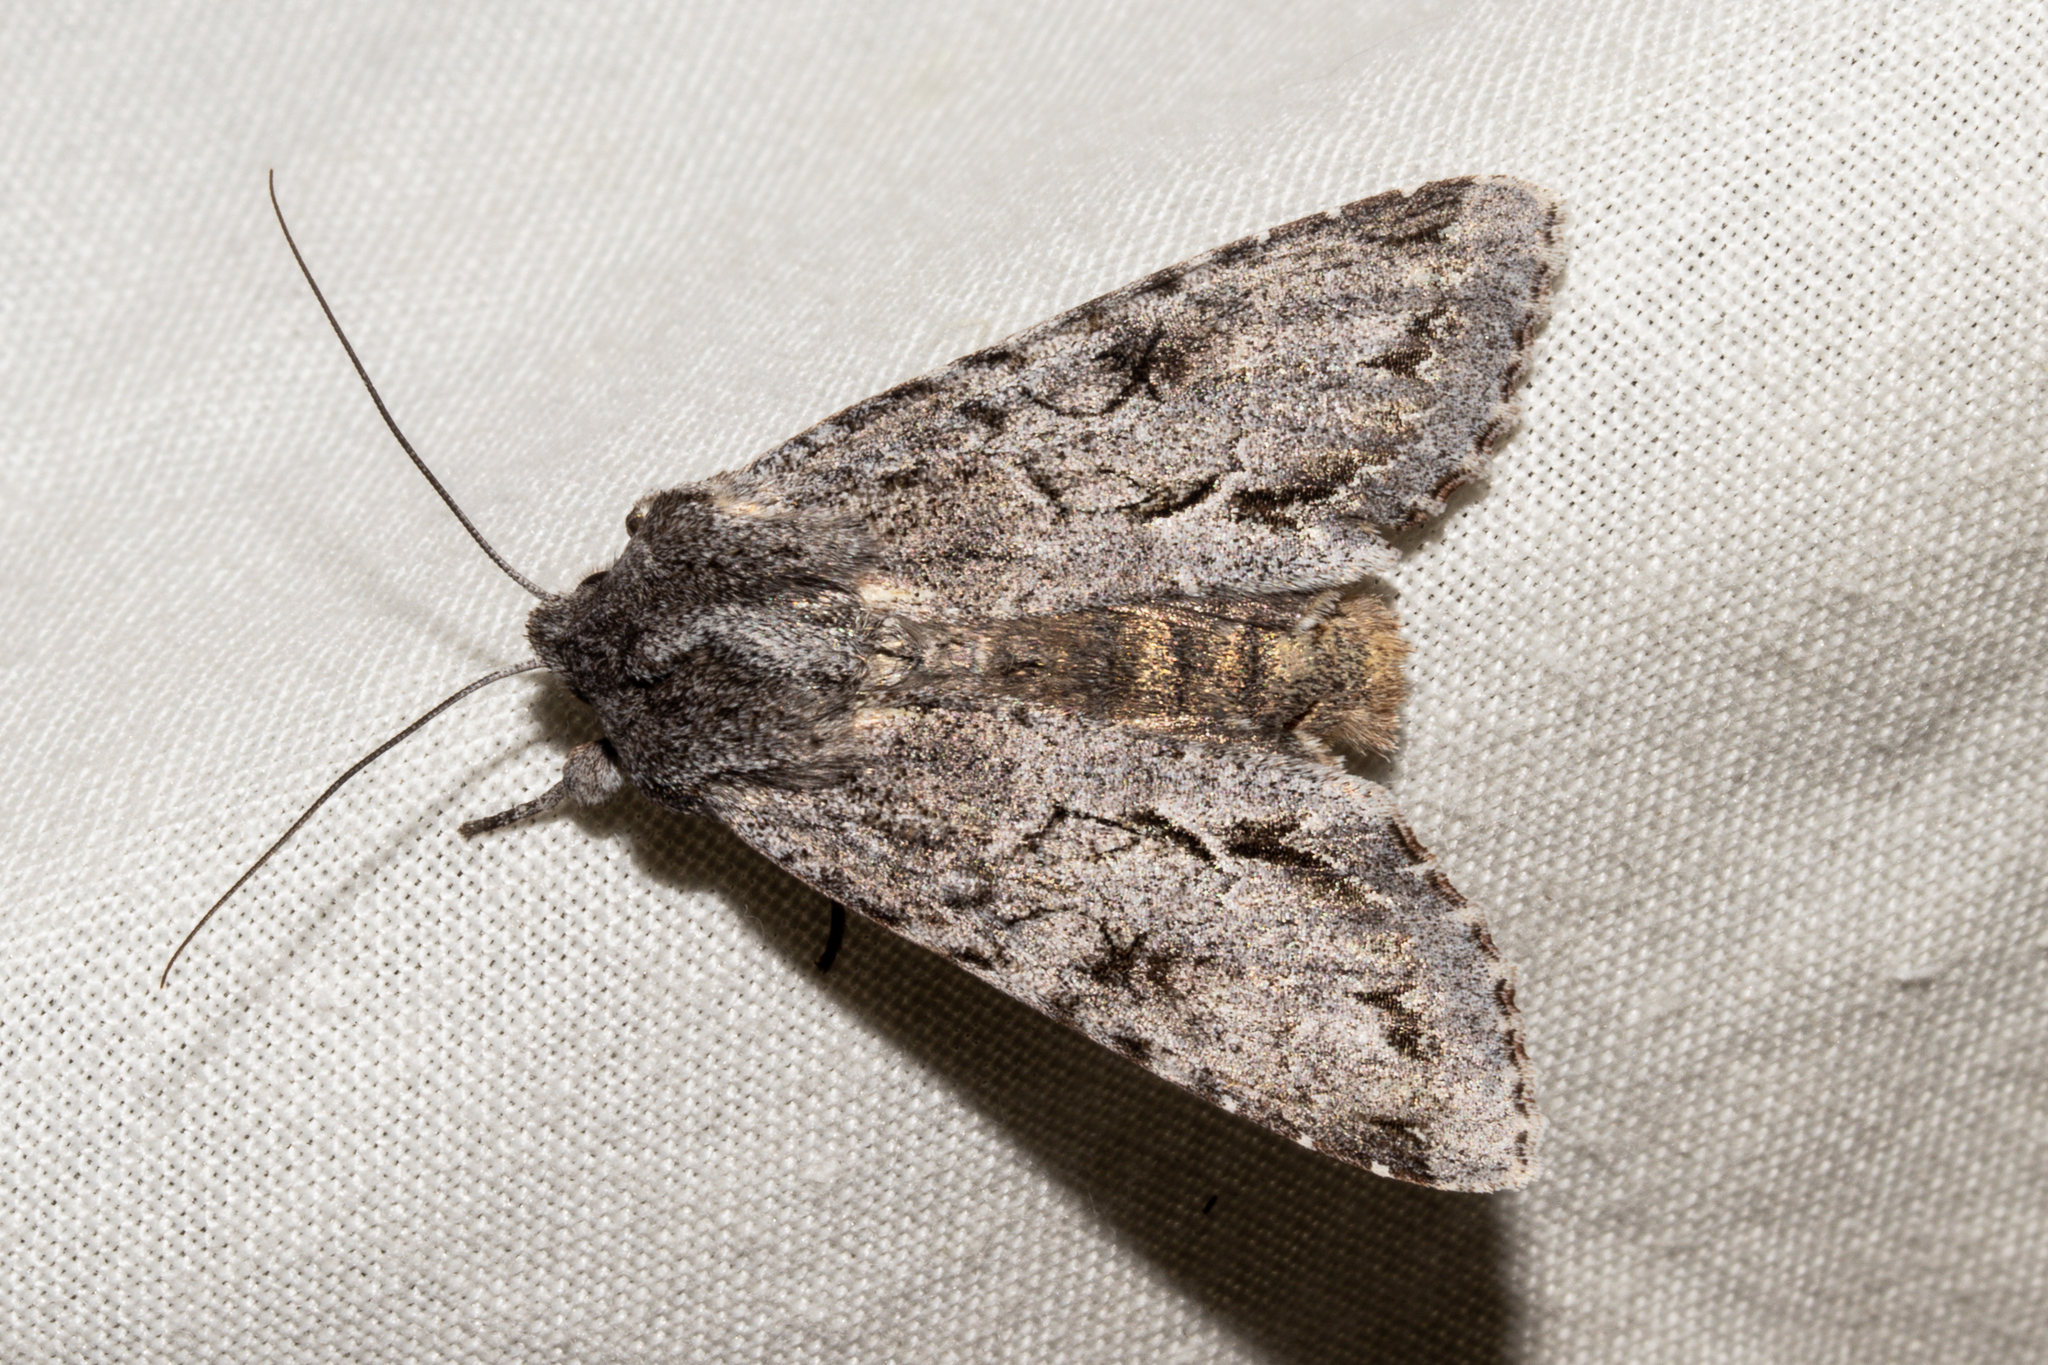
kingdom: Animalia
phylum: Arthropoda
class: Insecta
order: Lepidoptera
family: Noctuidae
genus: Ichneutica
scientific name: Ichneutica
